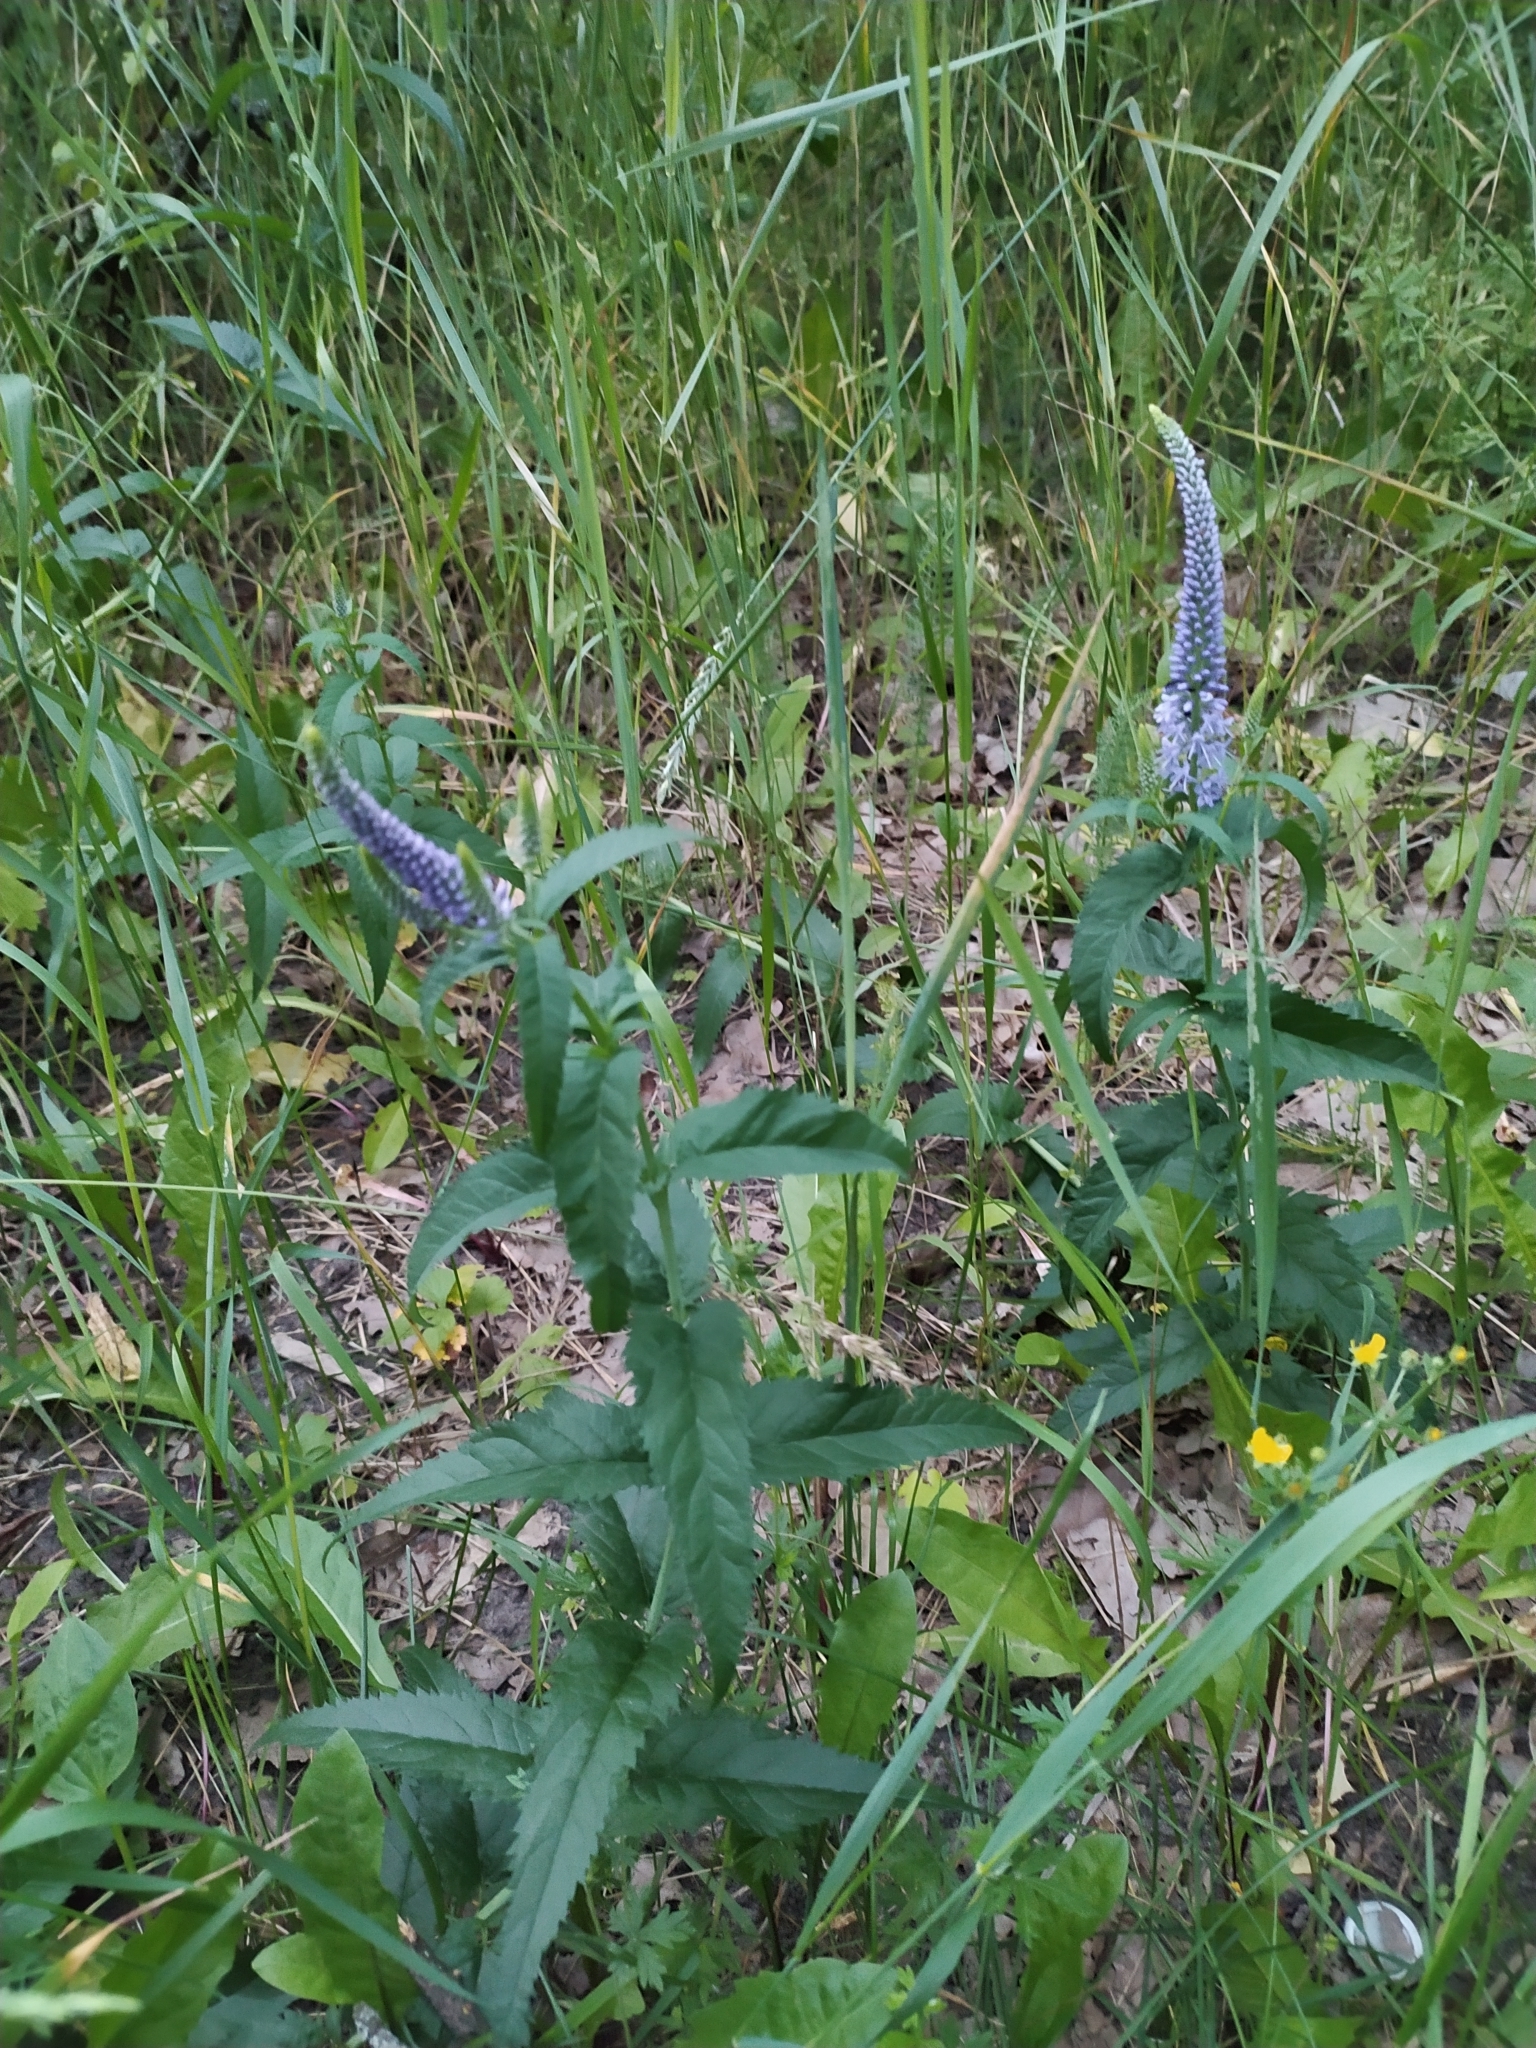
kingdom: Plantae
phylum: Tracheophyta
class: Magnoliopsida
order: Lamiales
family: Plantaginaceae
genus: Veronica
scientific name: Veronica longifolia
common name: Garden speedwell
